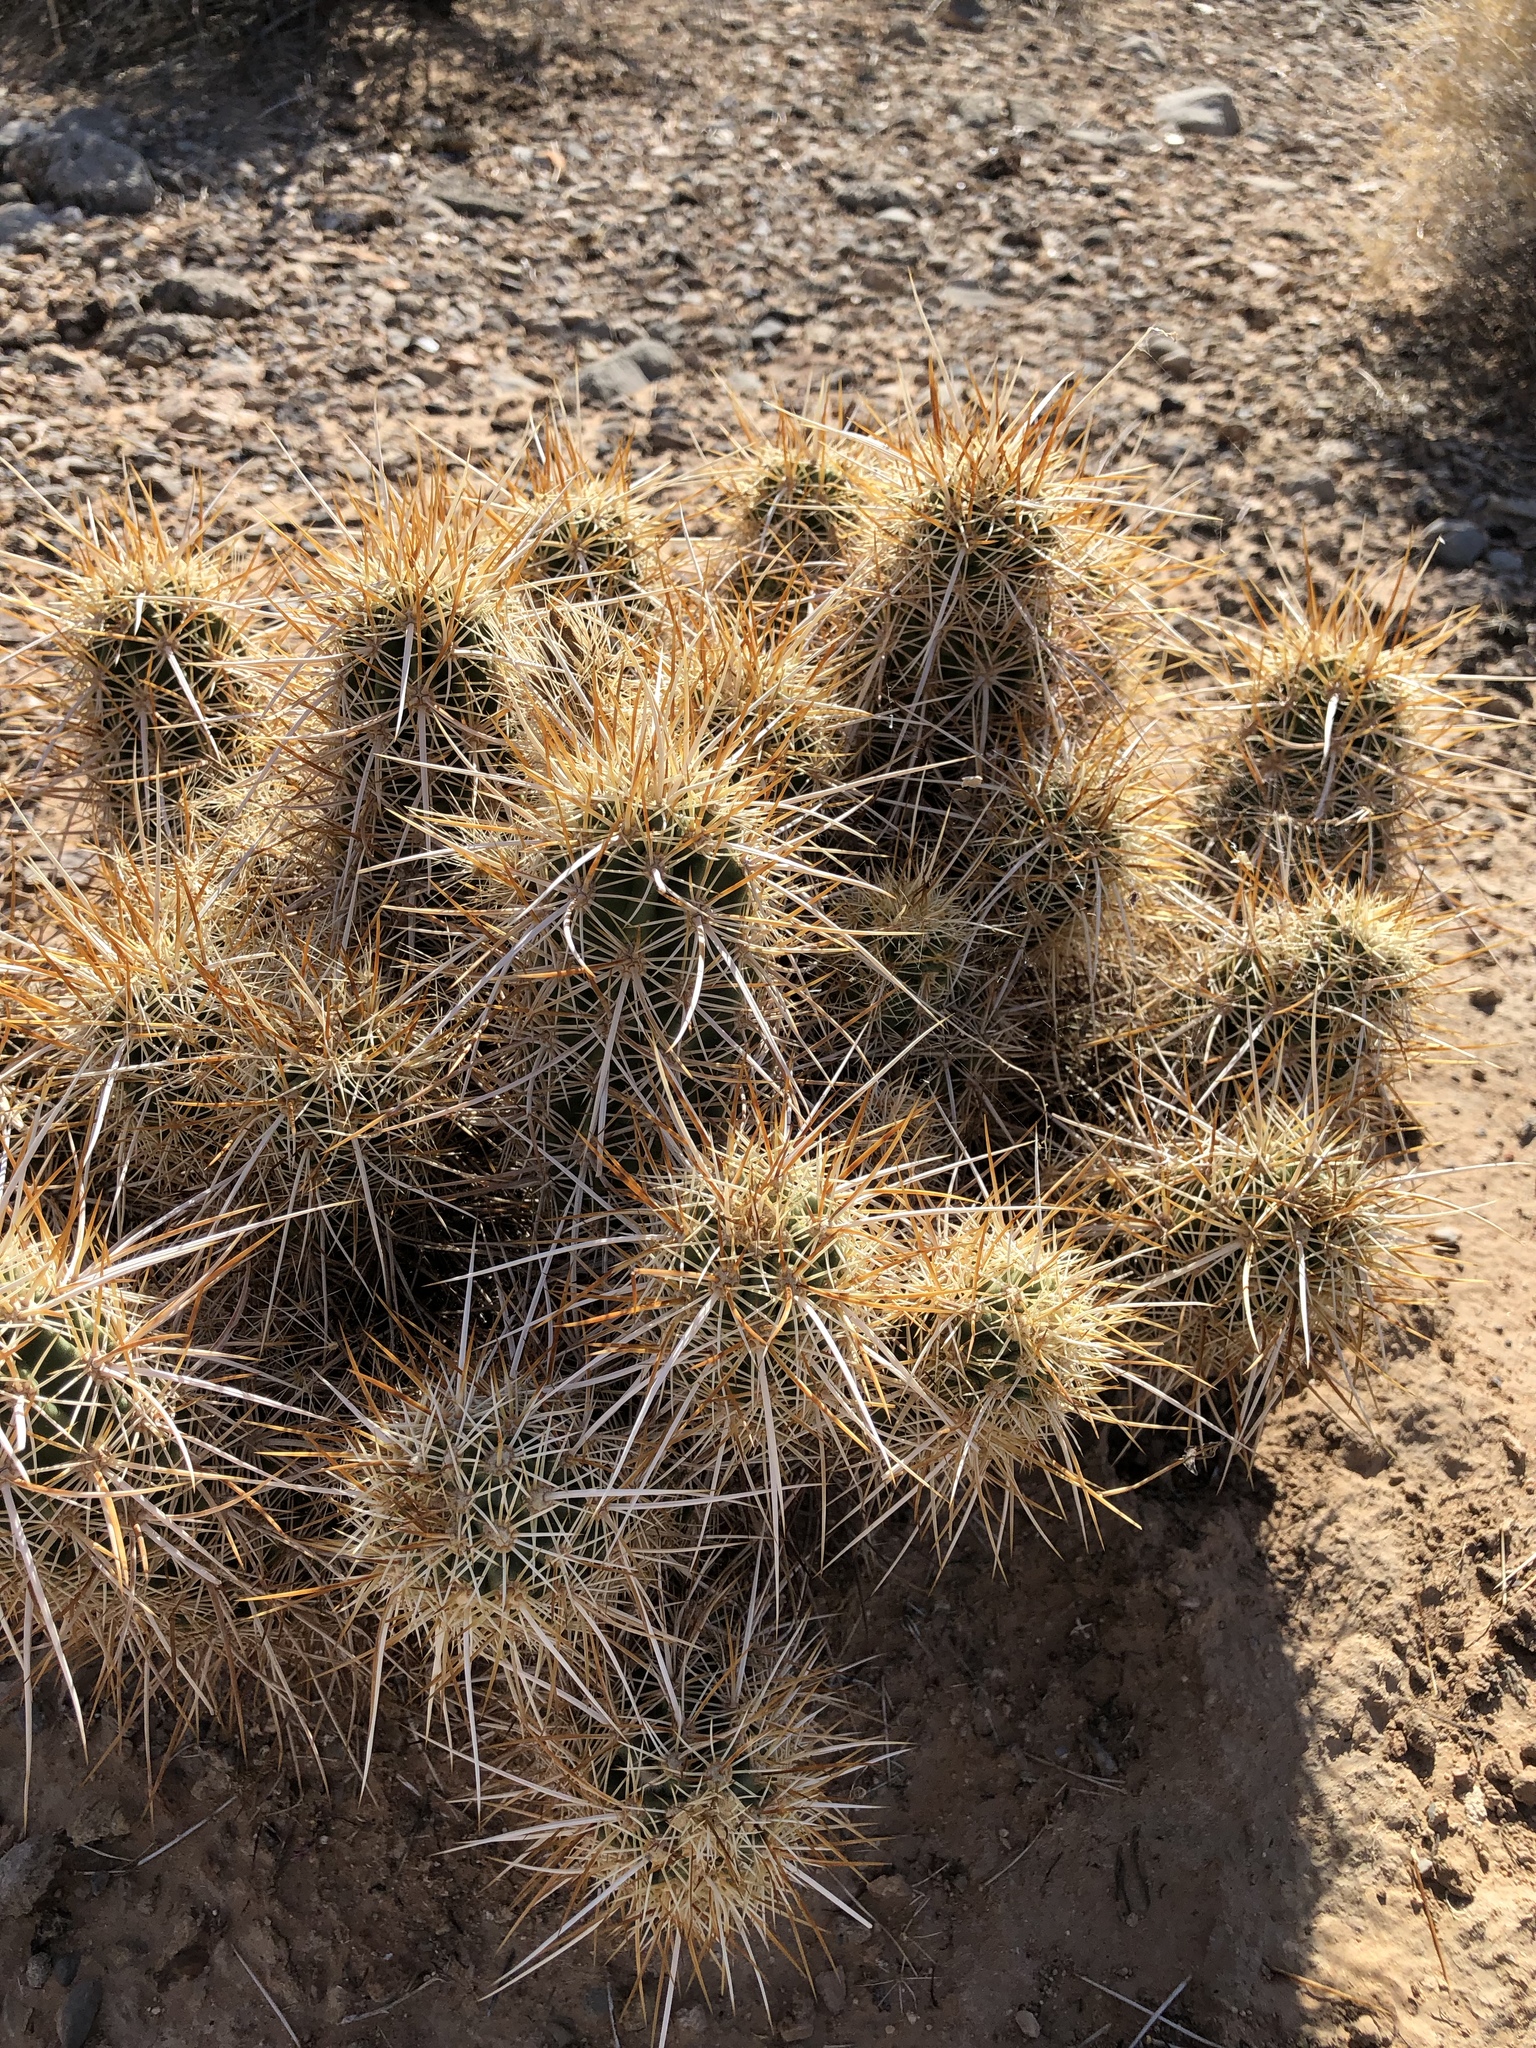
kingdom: Plantae
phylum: Tracheophyta
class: Magnoliopsida
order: Caryophyllales
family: Cactaceae
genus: Echinocereus
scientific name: Echinocereus engelmannii
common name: Engelmann's hedgehog cactus
